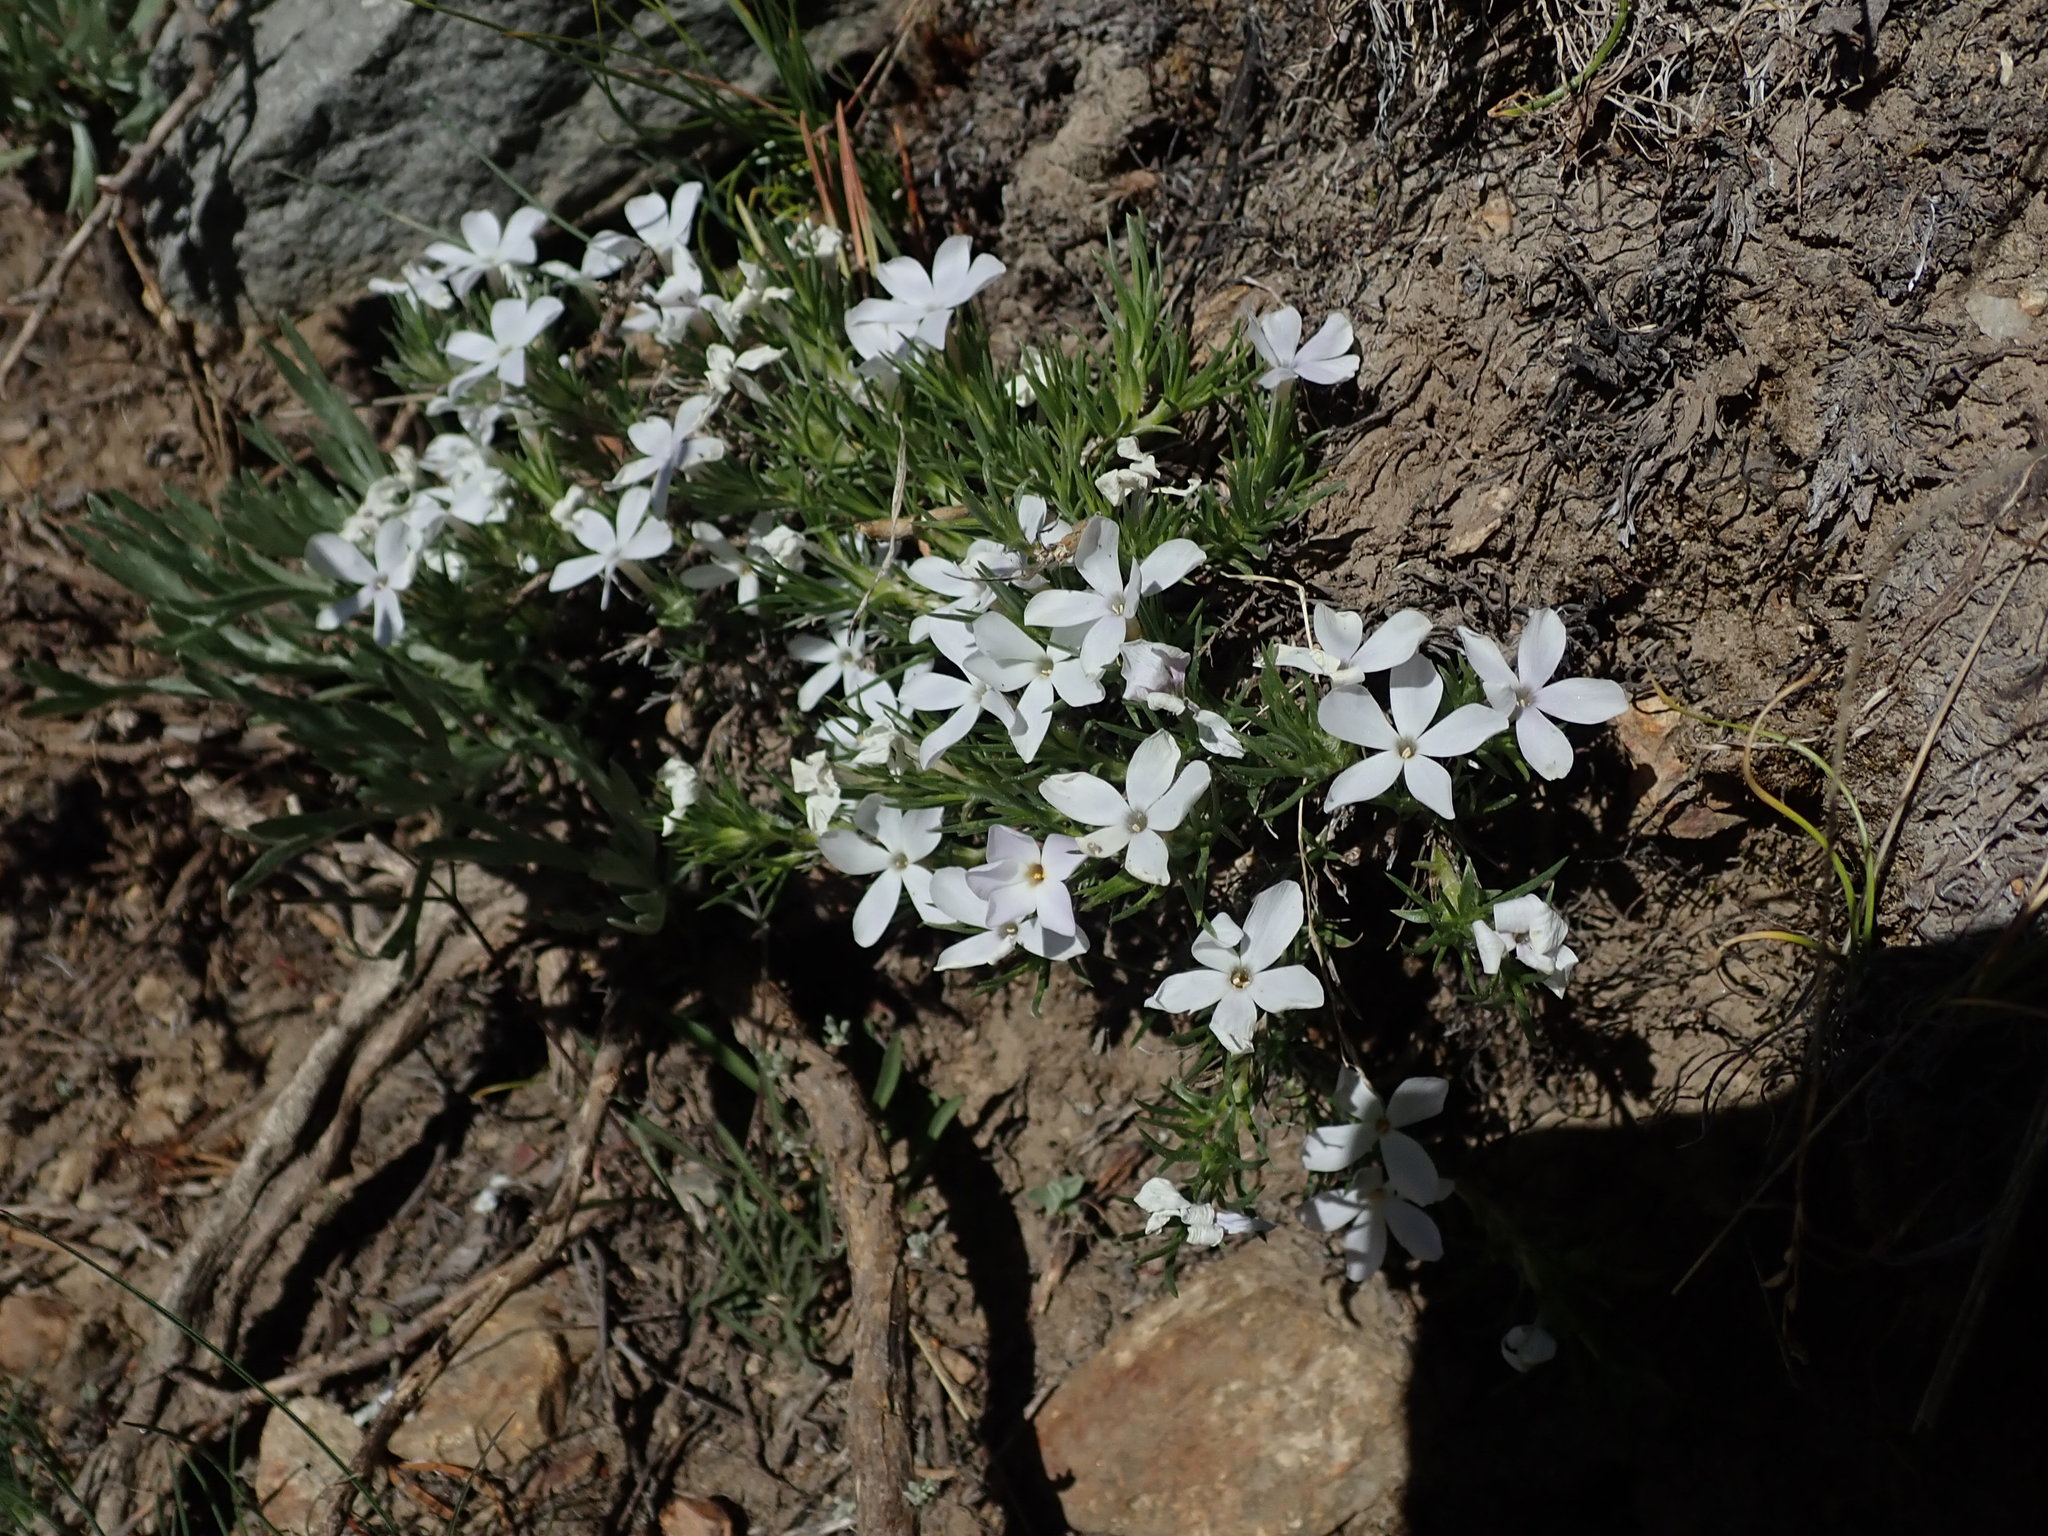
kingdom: Plantae
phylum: Tracheophyta
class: Magnoliopsida
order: Ericales
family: Polemoniaceae
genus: Phlox
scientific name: Phlox diffusa
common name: Mat phlox
